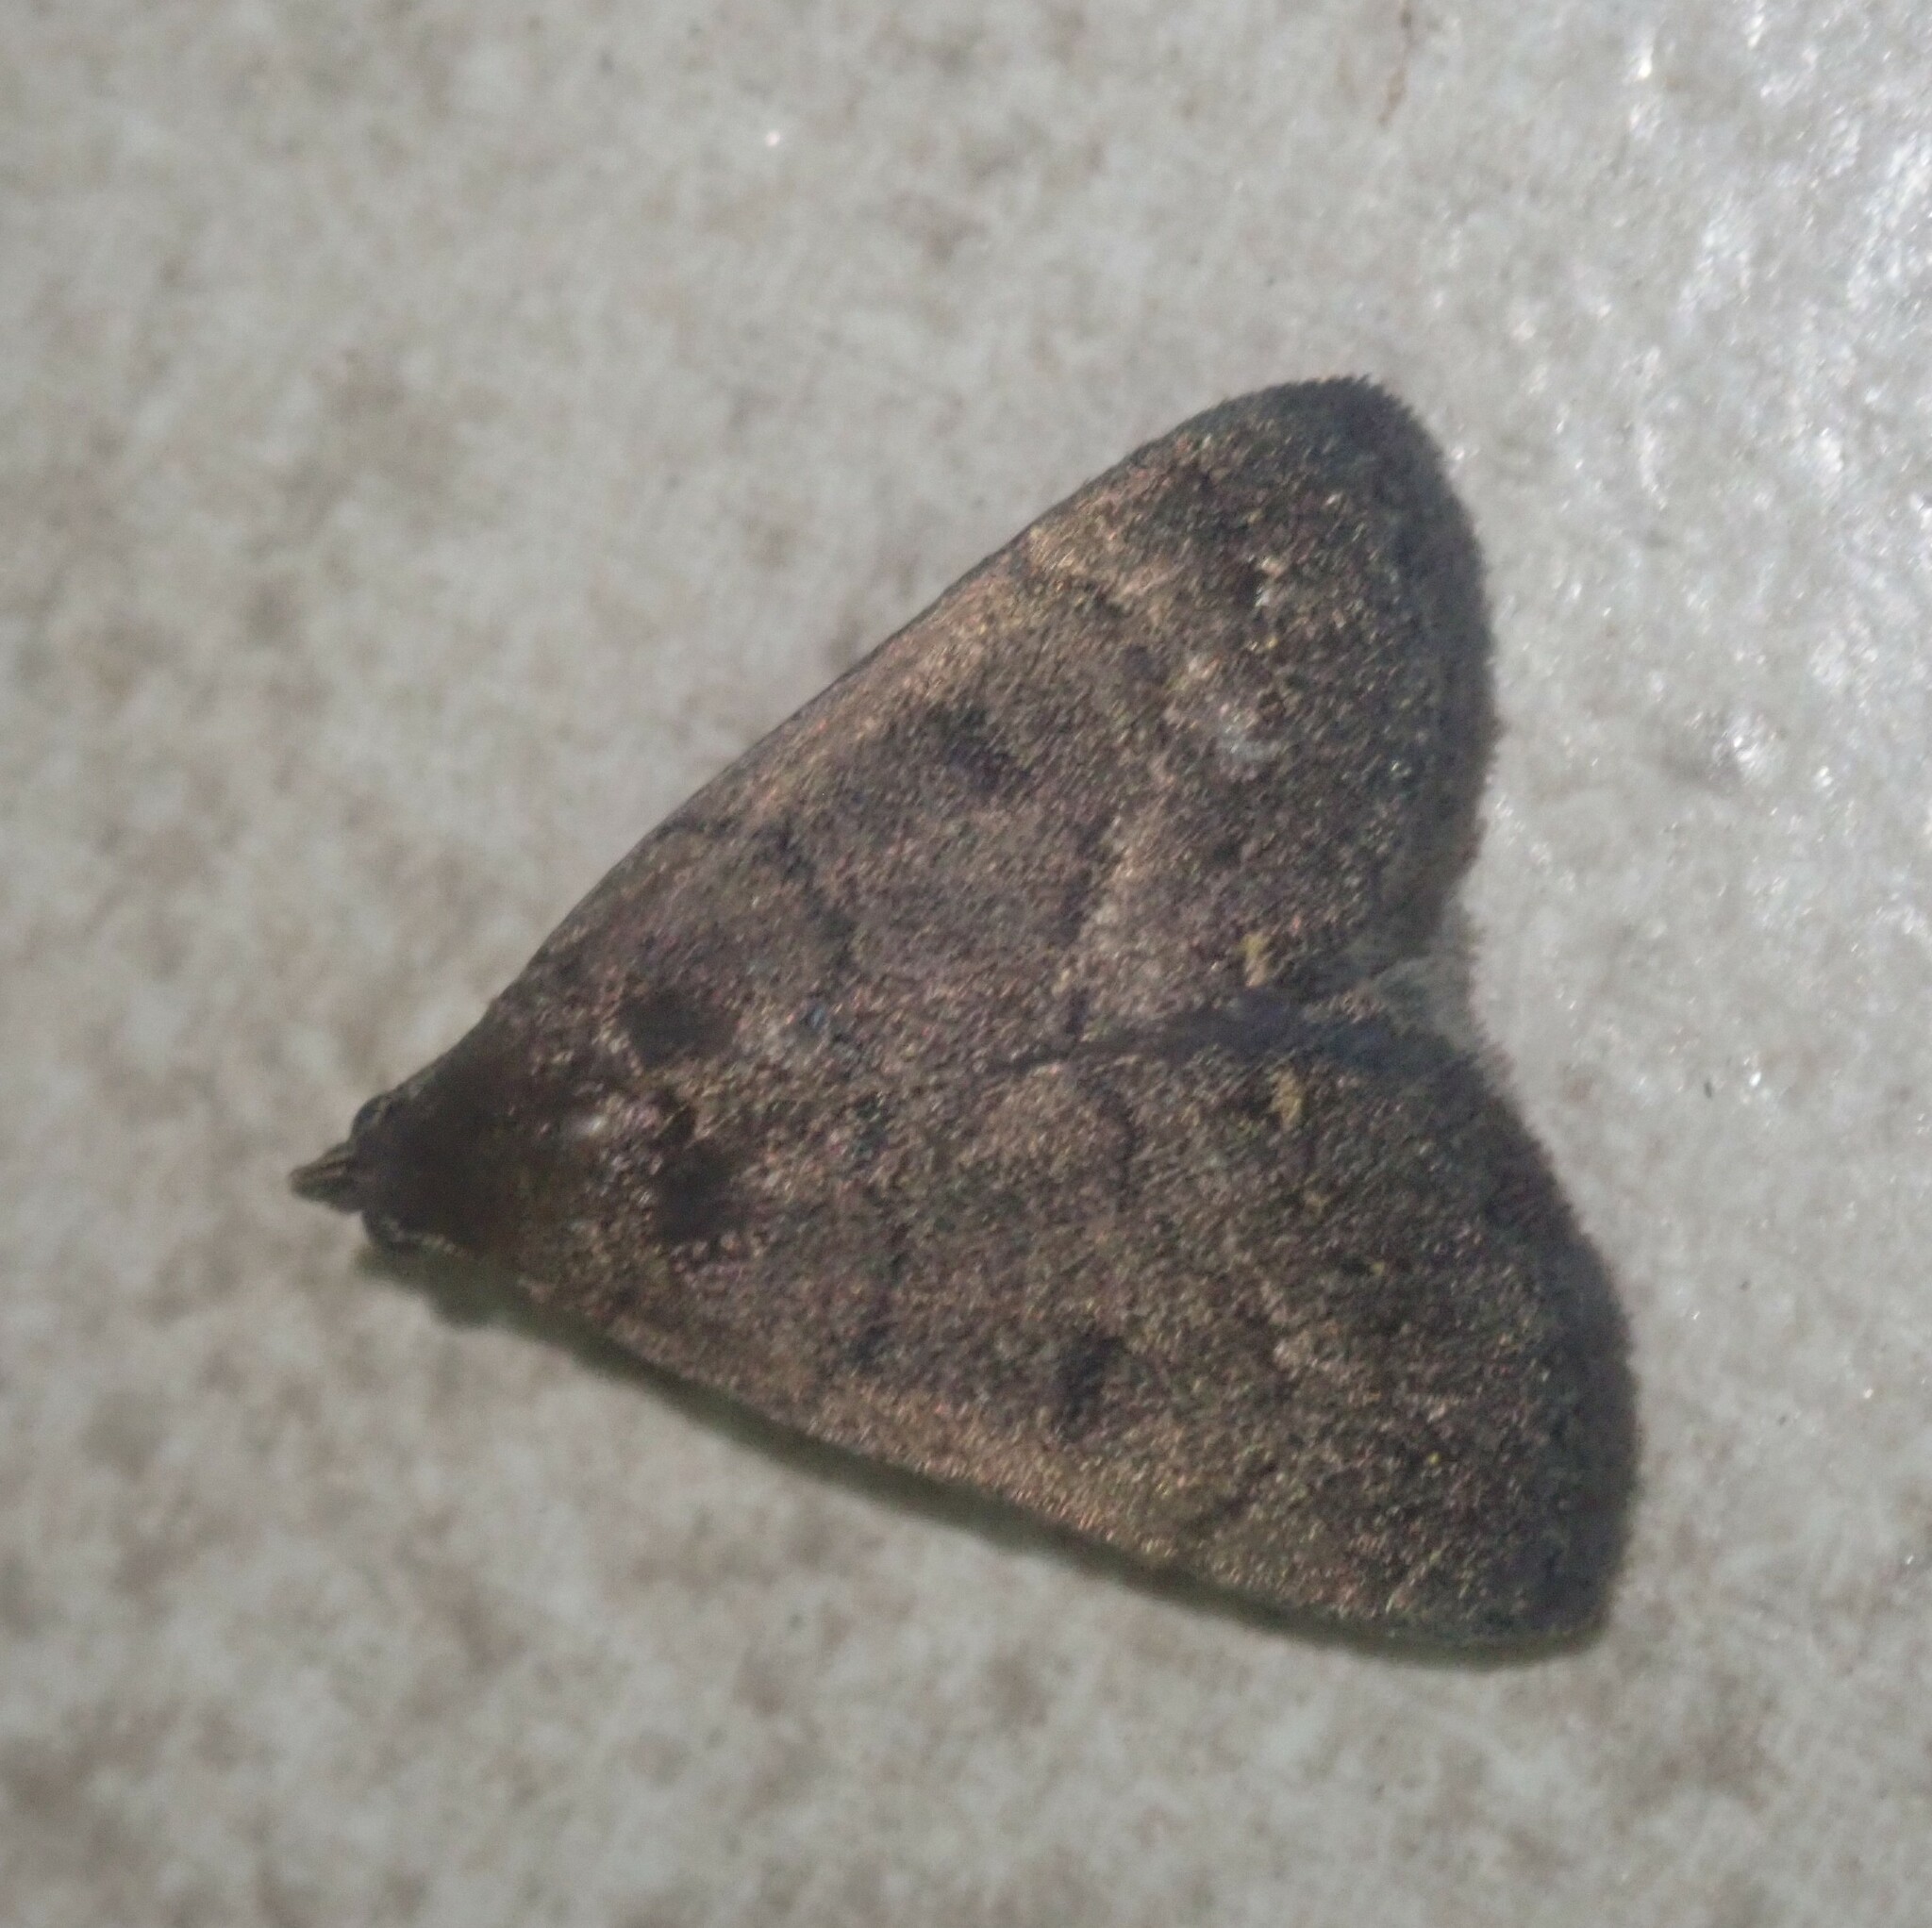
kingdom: Animalia
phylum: Arthropoda
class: Insecta
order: Lepidoptera
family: Erebidae
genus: Nodaria
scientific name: Nodaria nodosalis
